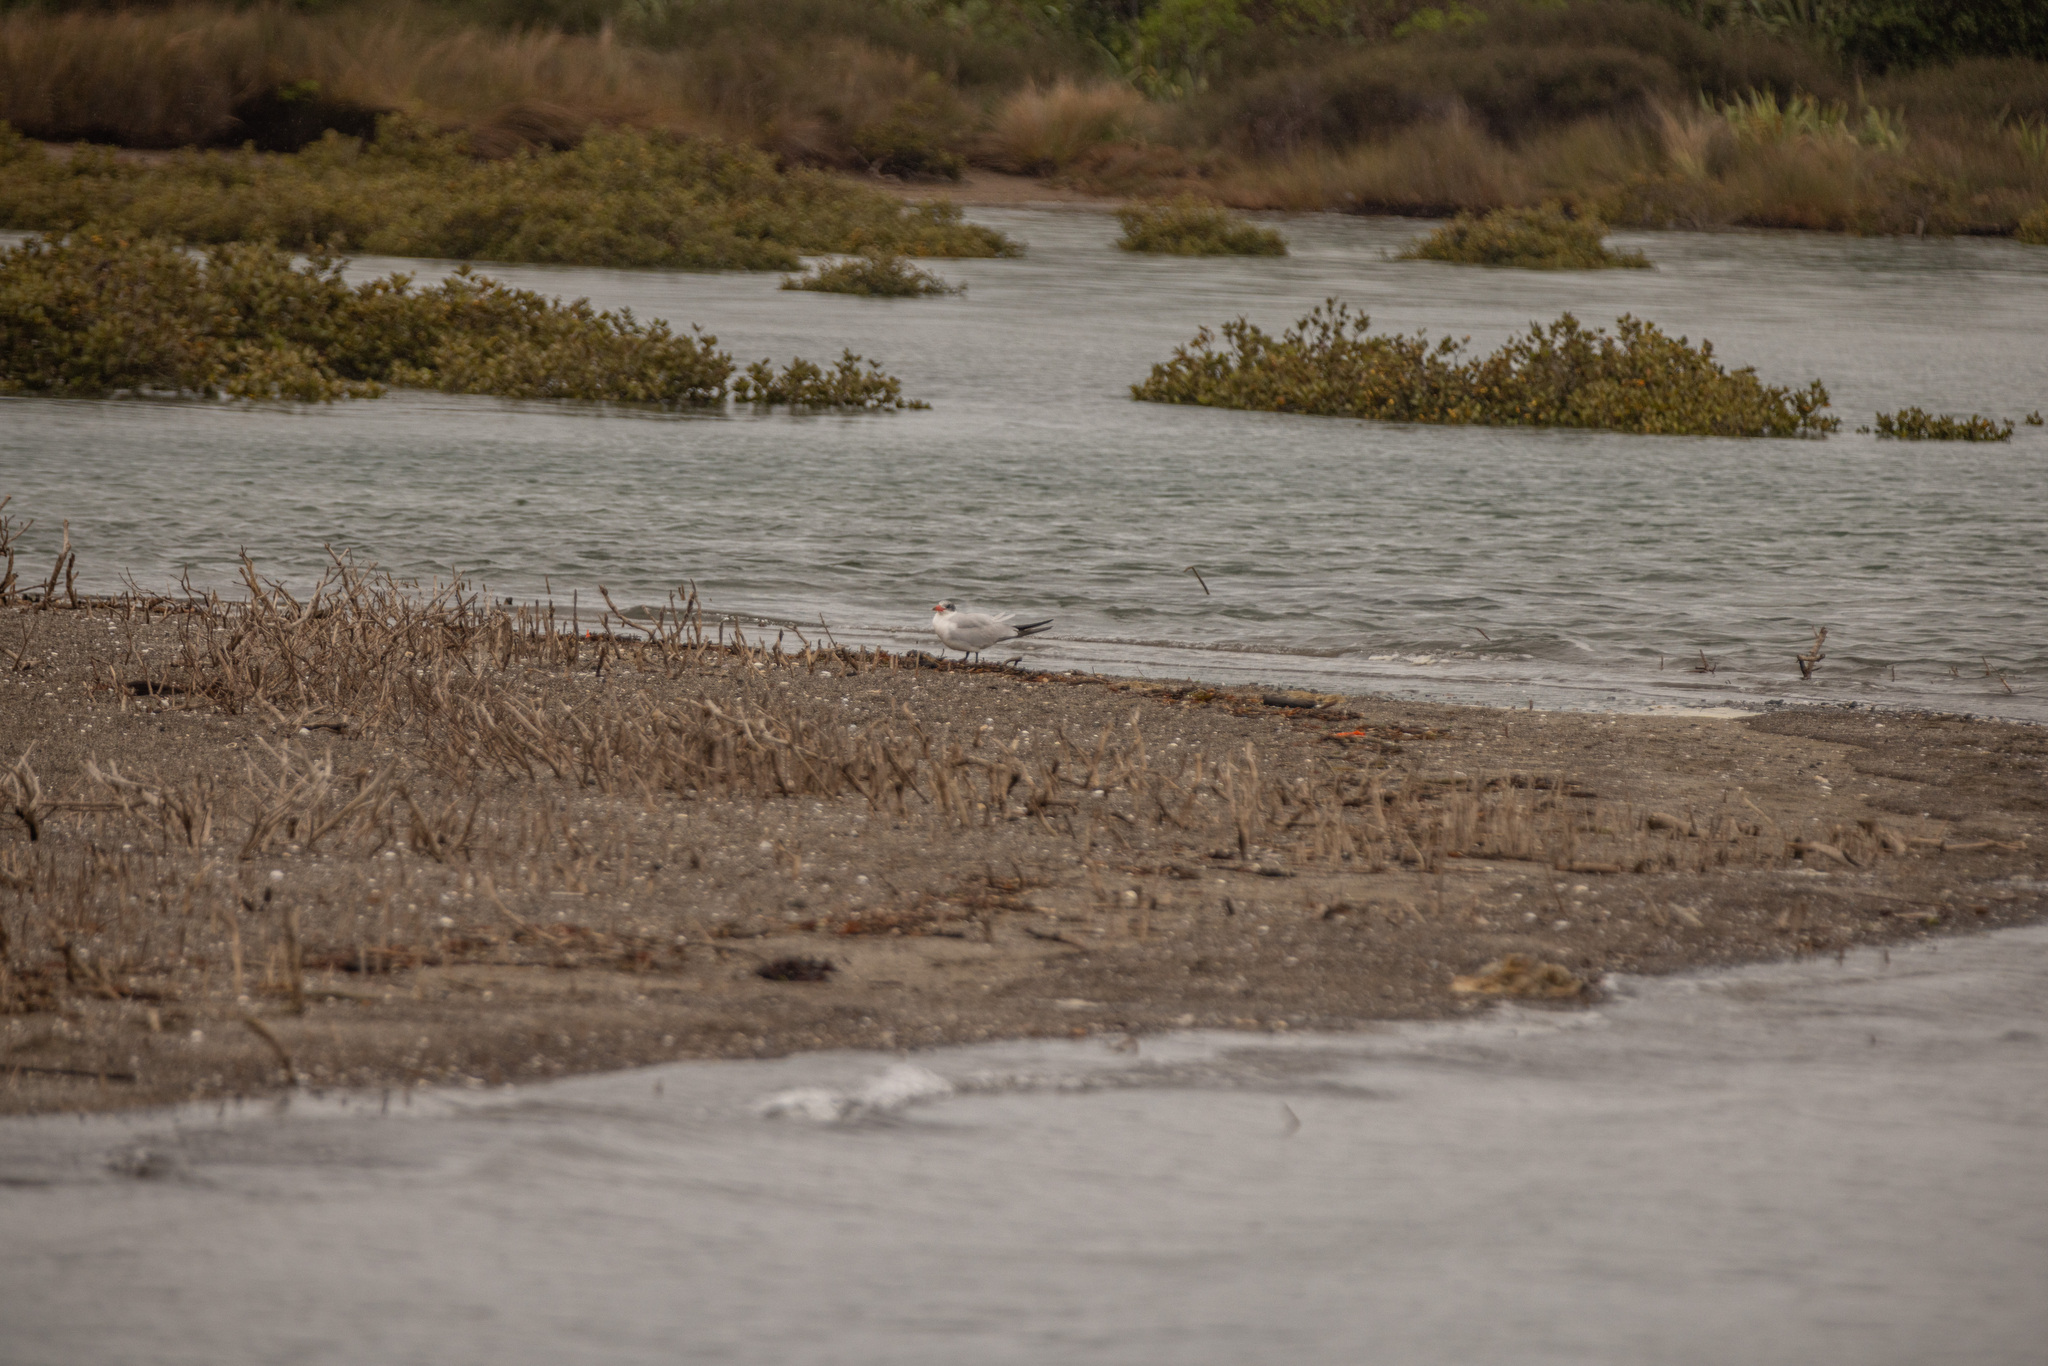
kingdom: Animalia
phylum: Chordata
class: Aves
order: Charadriiformes
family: Laridae
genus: Hydroprogne
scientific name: Hydroprogne caspia
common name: Caspian tern
